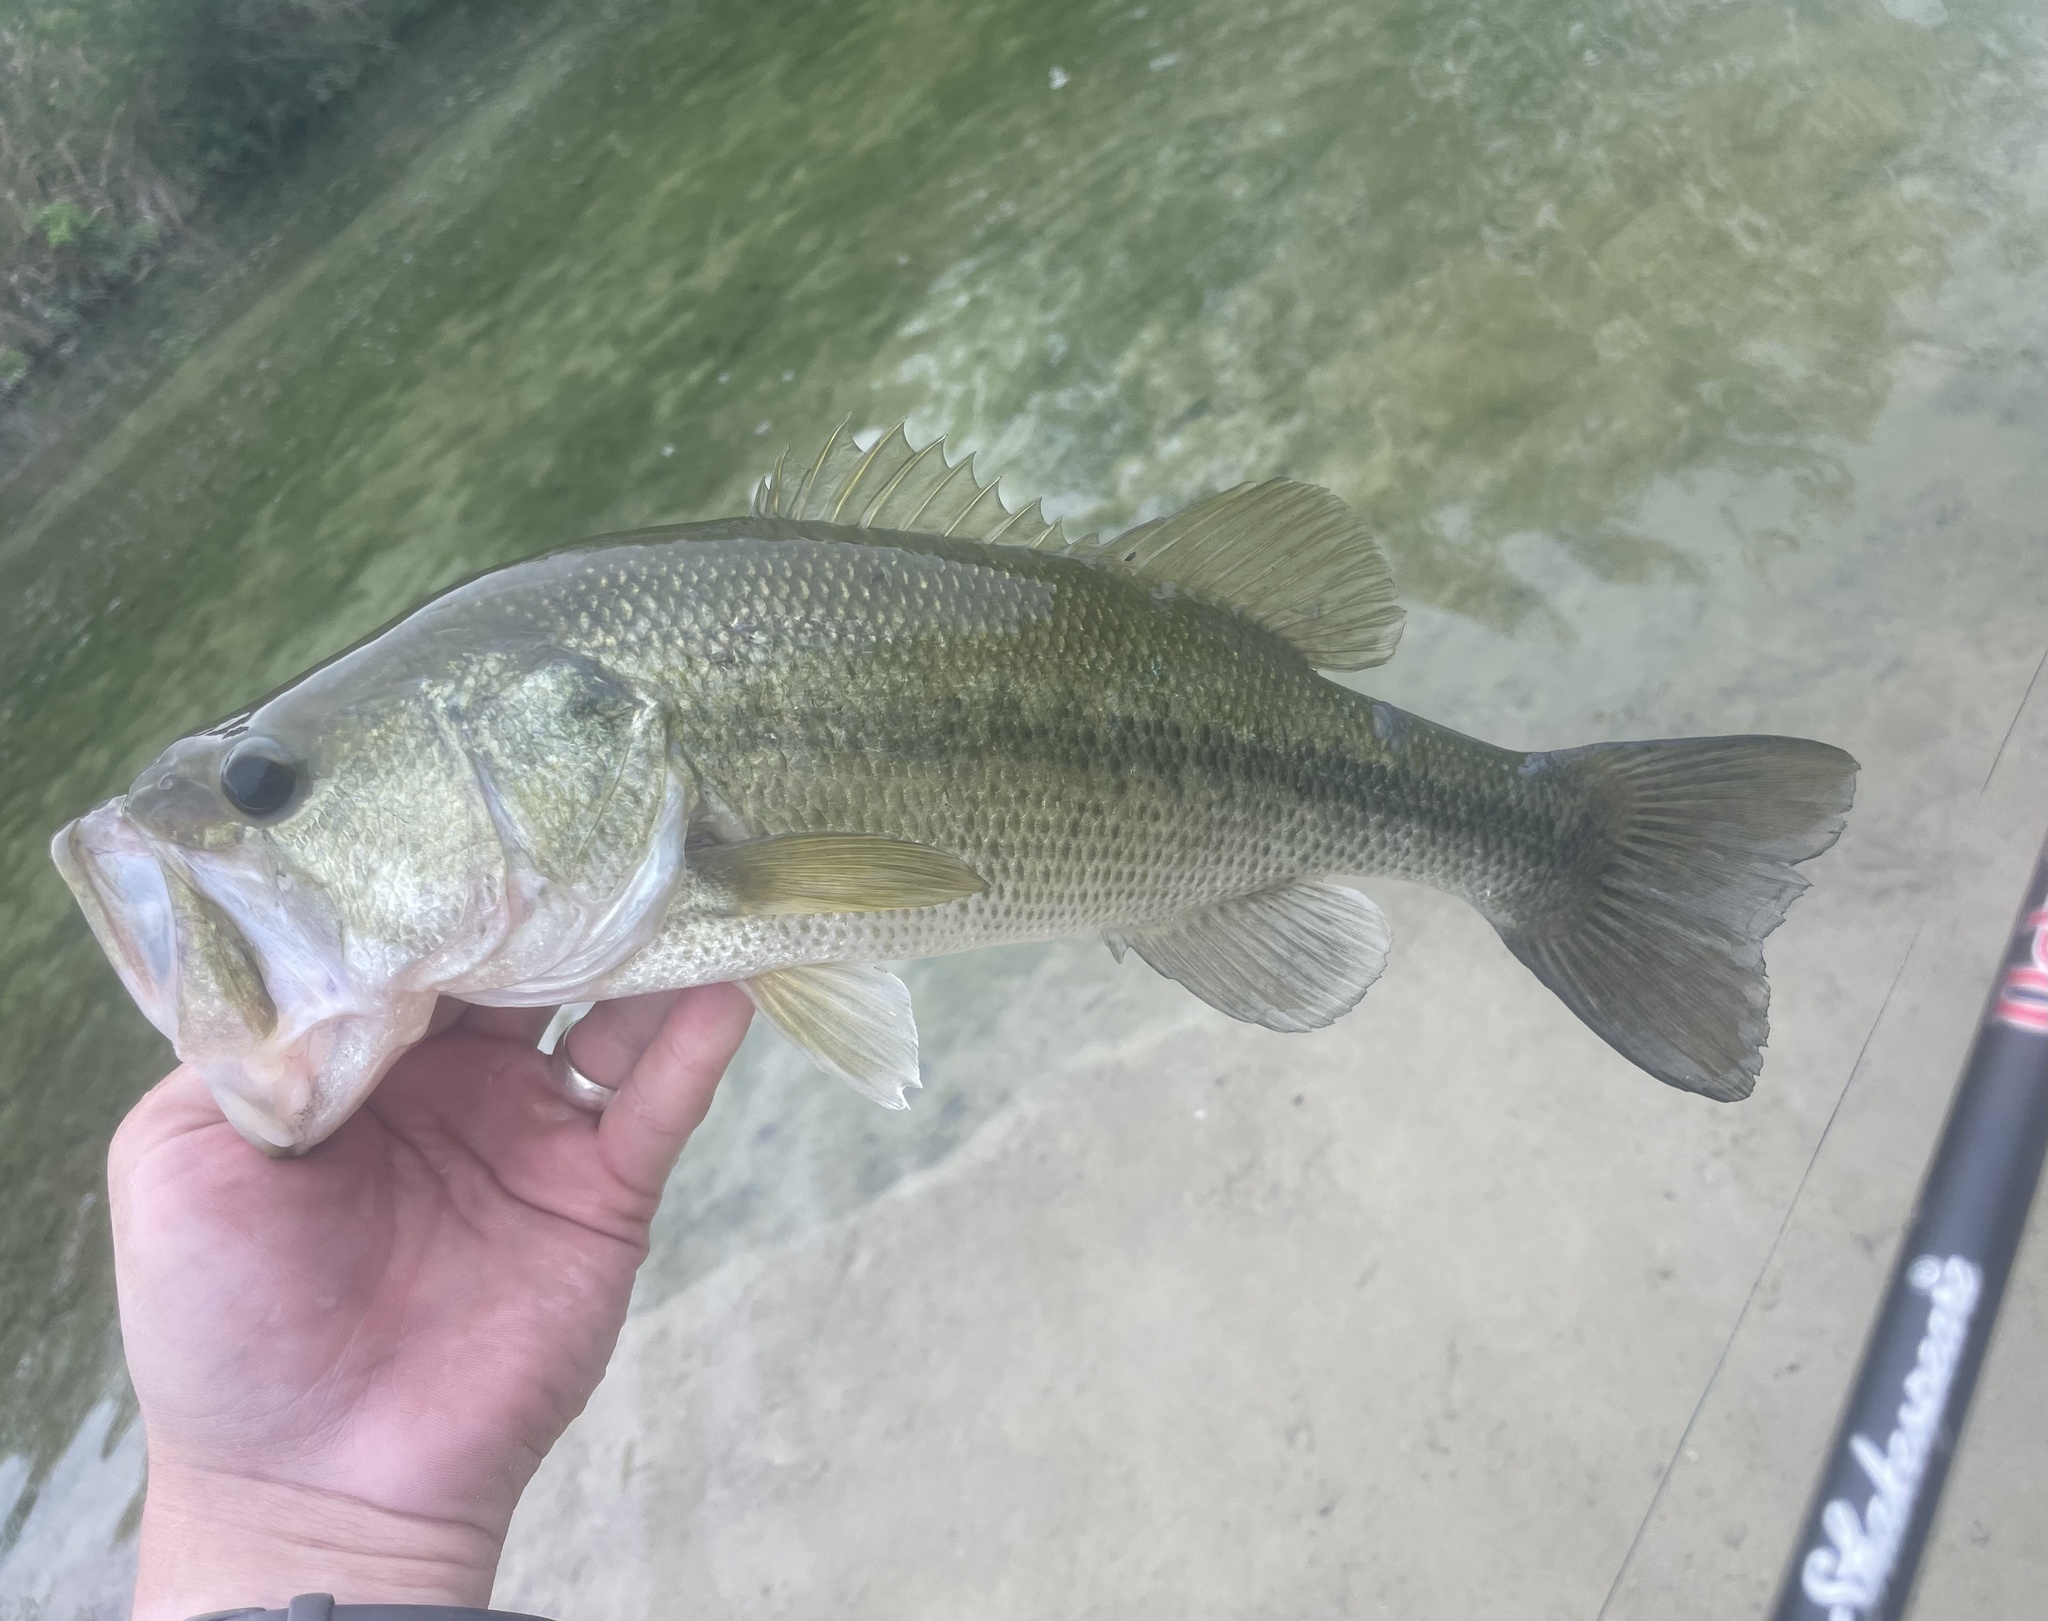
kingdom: Animalia
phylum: Chordata
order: Perciformes
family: Centrarchidae
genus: Micropterus
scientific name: Micropterus
